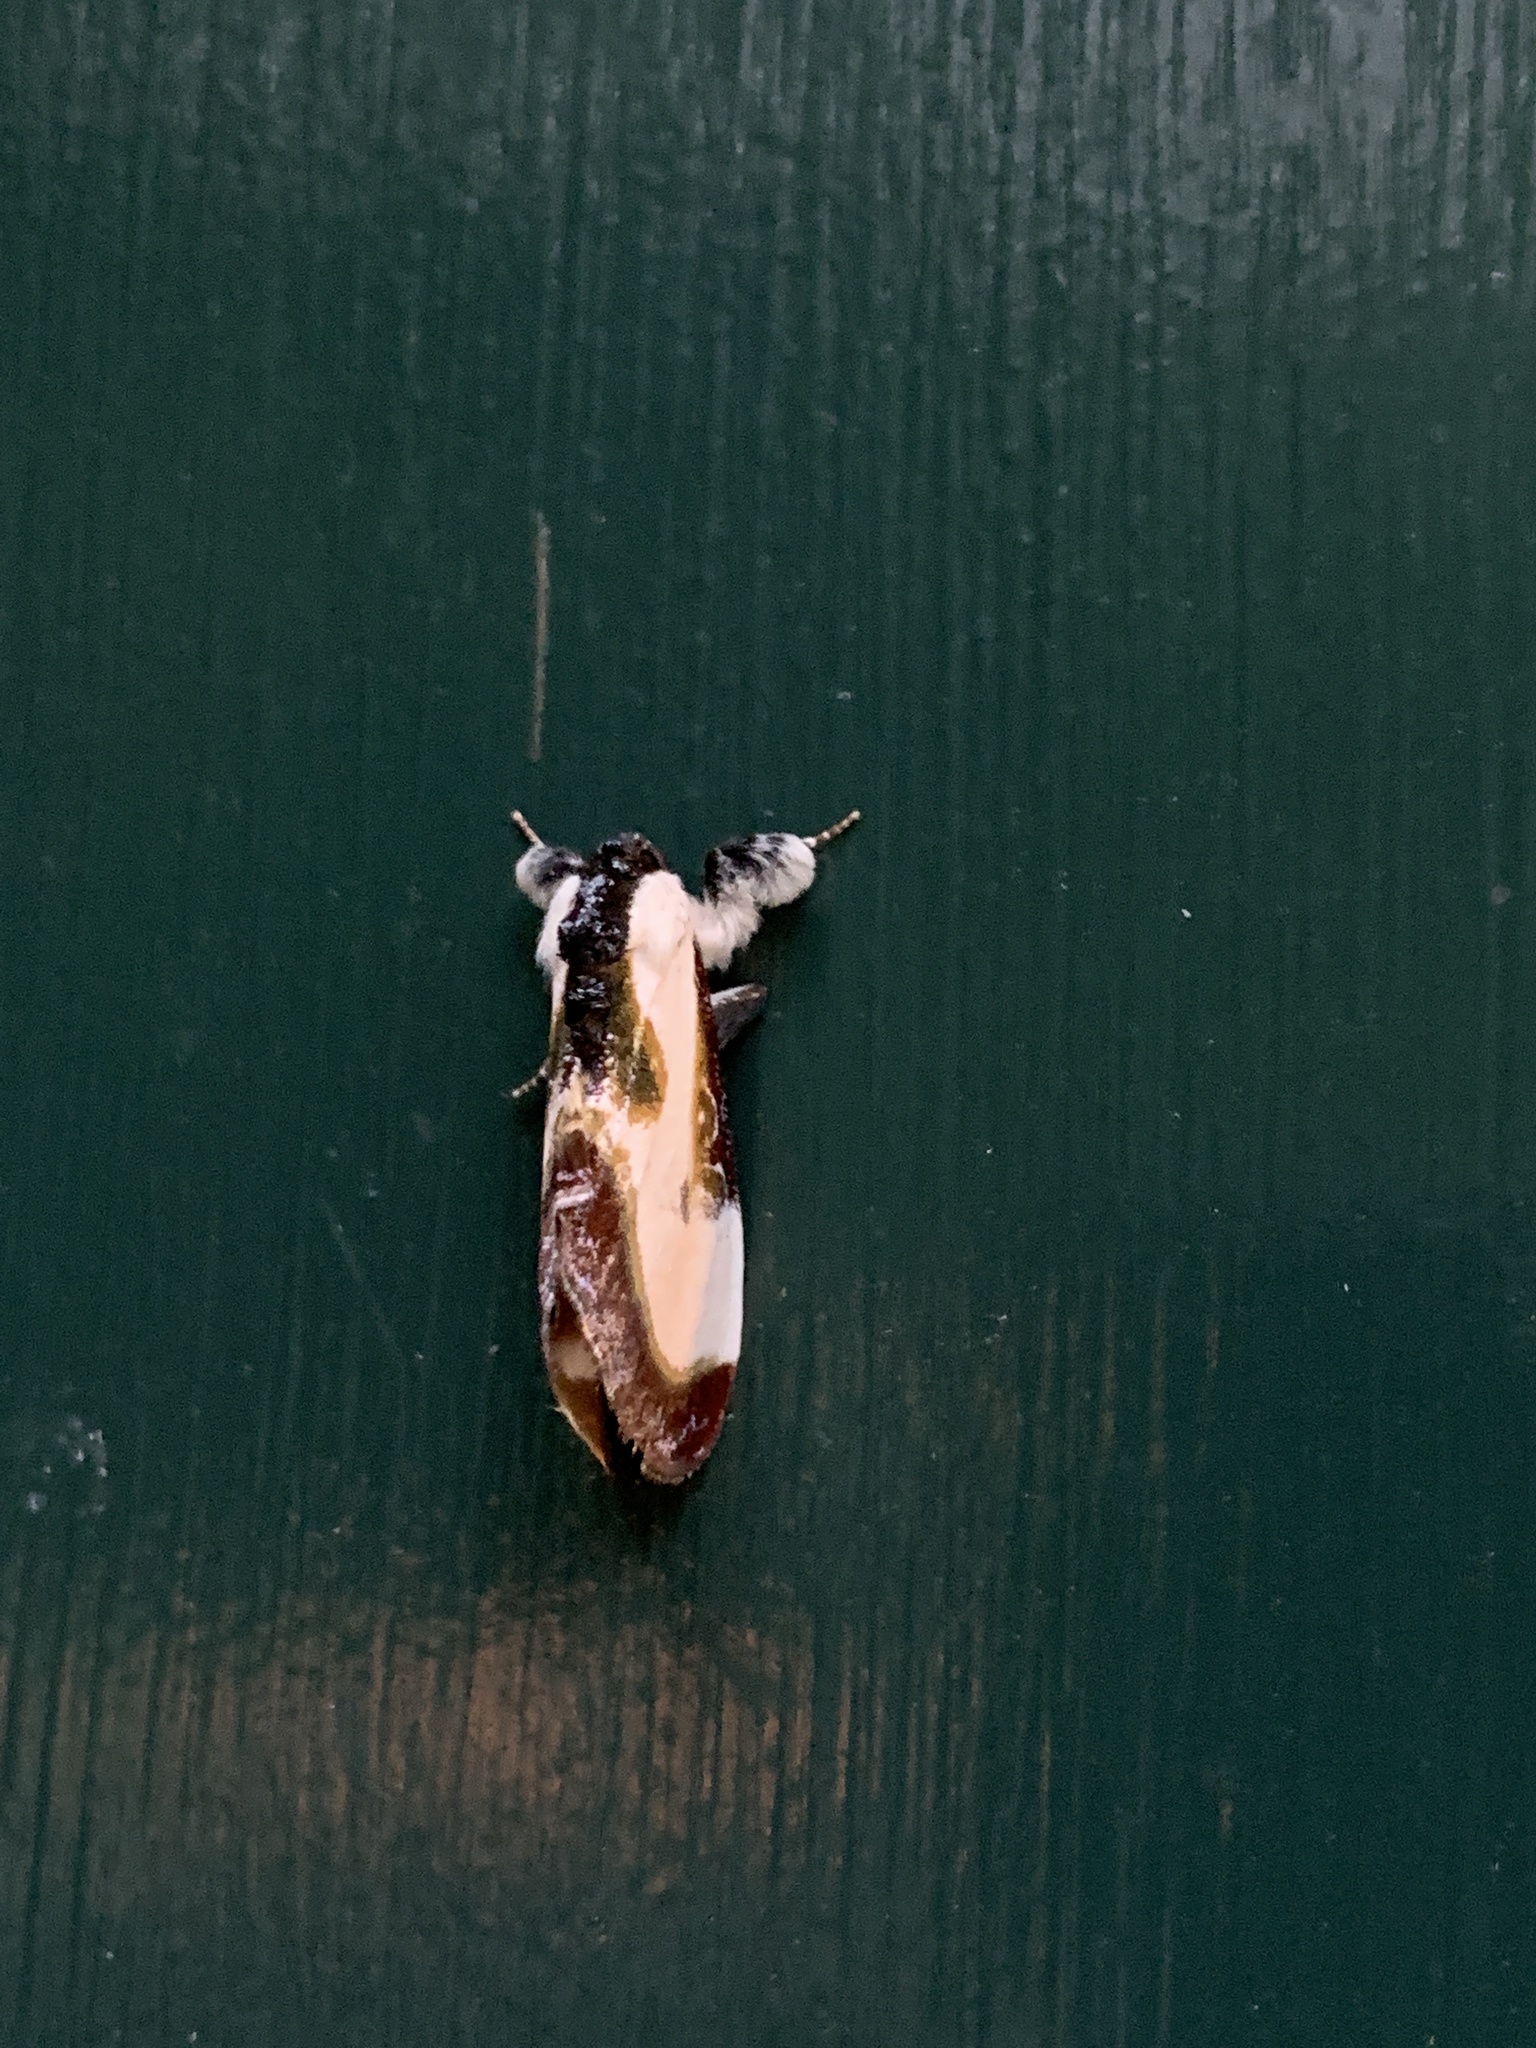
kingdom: Animalia
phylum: Arthropoda
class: Insecta
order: Lepidoptera
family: Noctuidae
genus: Eudryas
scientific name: Eudryas grata
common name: Beautiful wood-nymph
